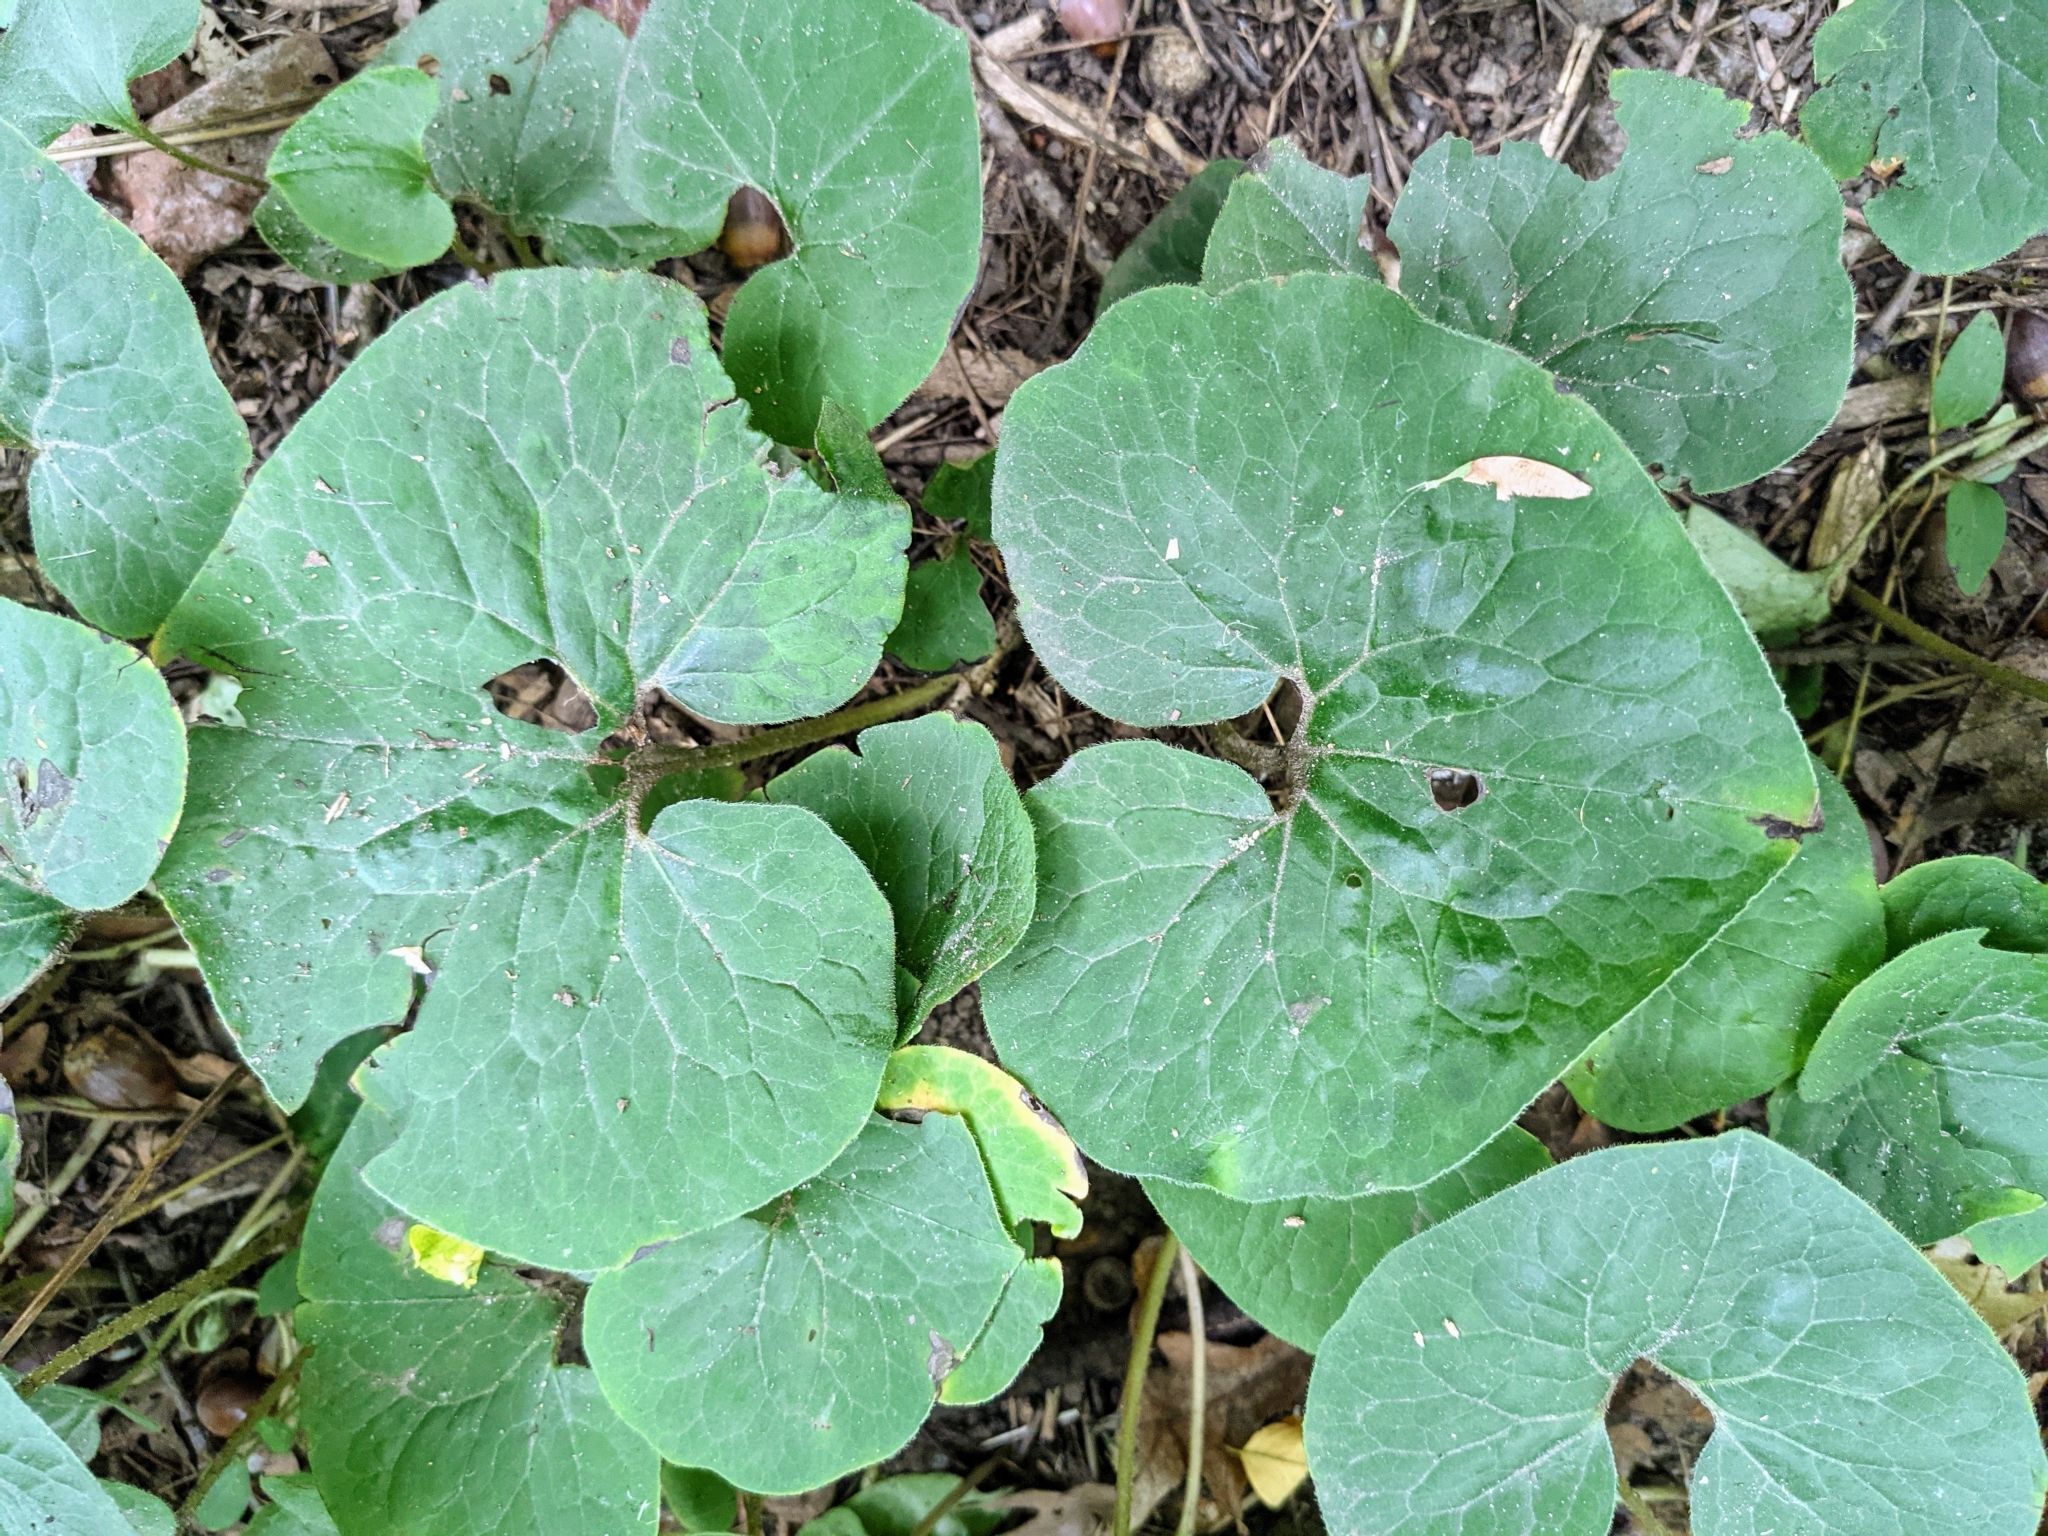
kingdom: Plantae
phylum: Tracheophyta
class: Magnoliopsida
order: Piperales
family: Aristolochiaceae
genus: Asarum
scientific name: Asarum canadense
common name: Wild ginger
